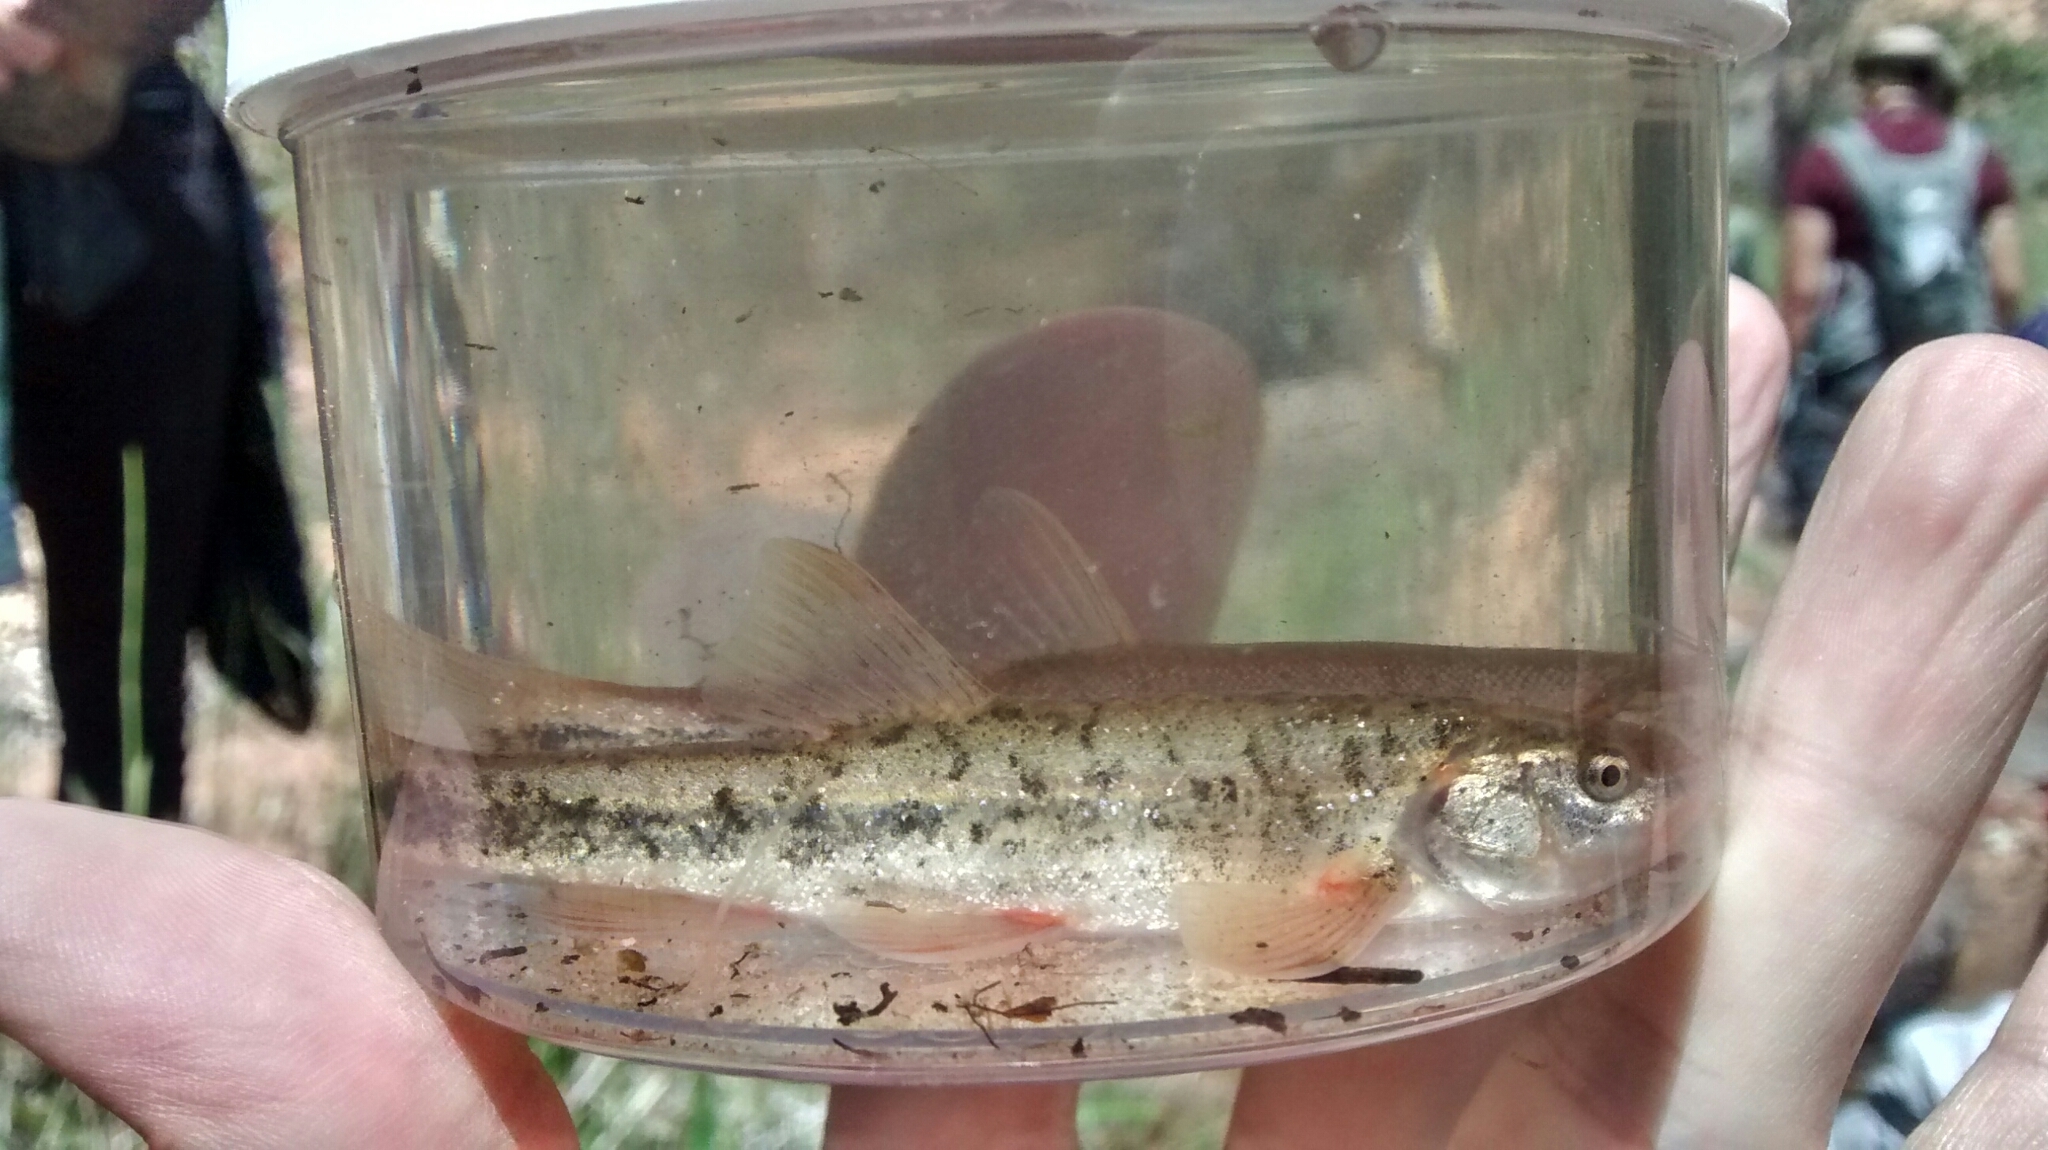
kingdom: Animalia
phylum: Chordata
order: Cypriniformes
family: Cyprinidae
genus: Rhinichthys
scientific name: Rhinichthys osculus
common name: Speckled dace
